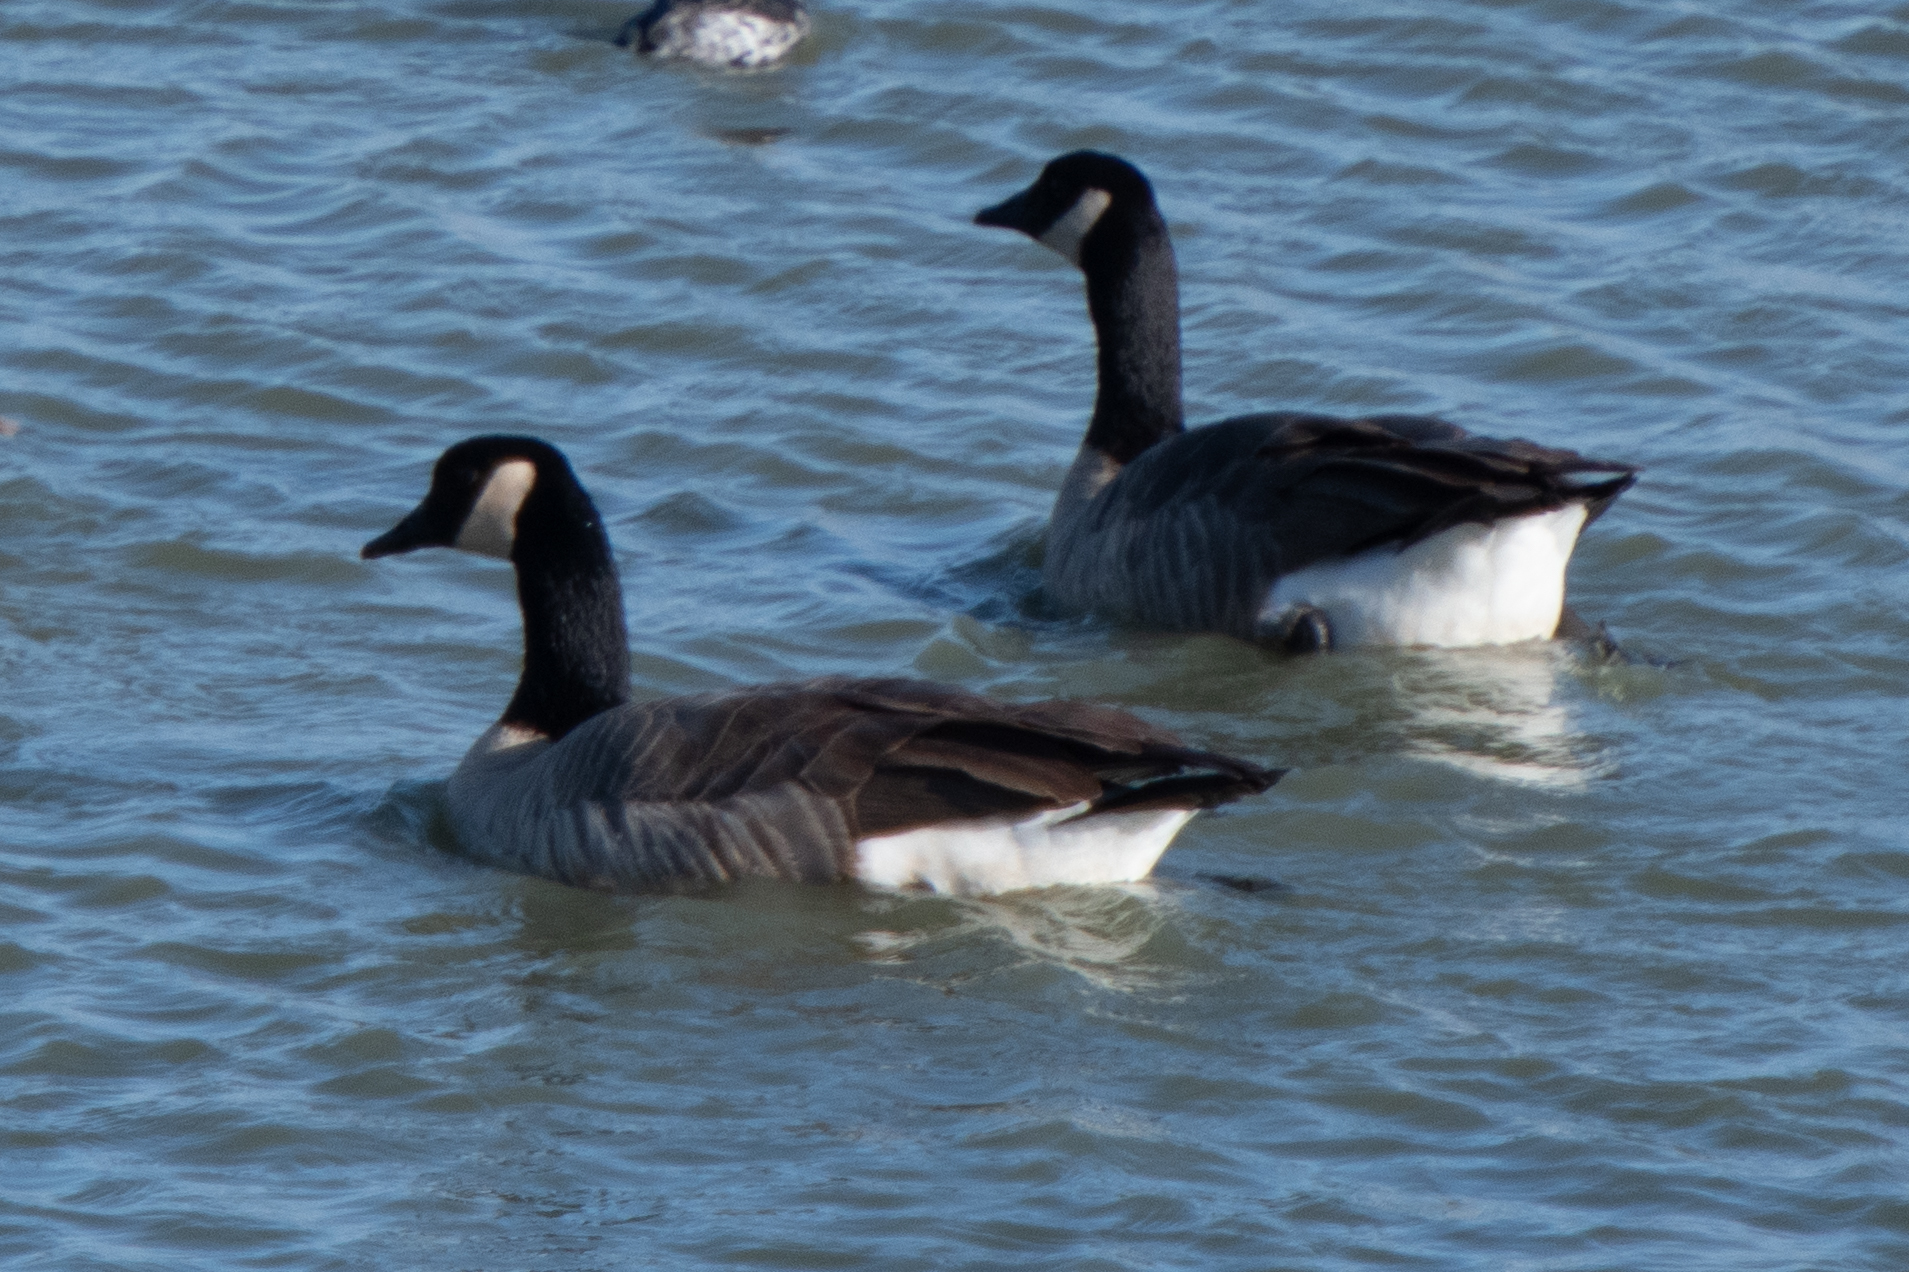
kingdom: Animalia
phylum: Chordata
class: Aves
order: Anseriformes
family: Anatidae
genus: Branta
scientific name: Branta canadensis
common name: Canada goose
